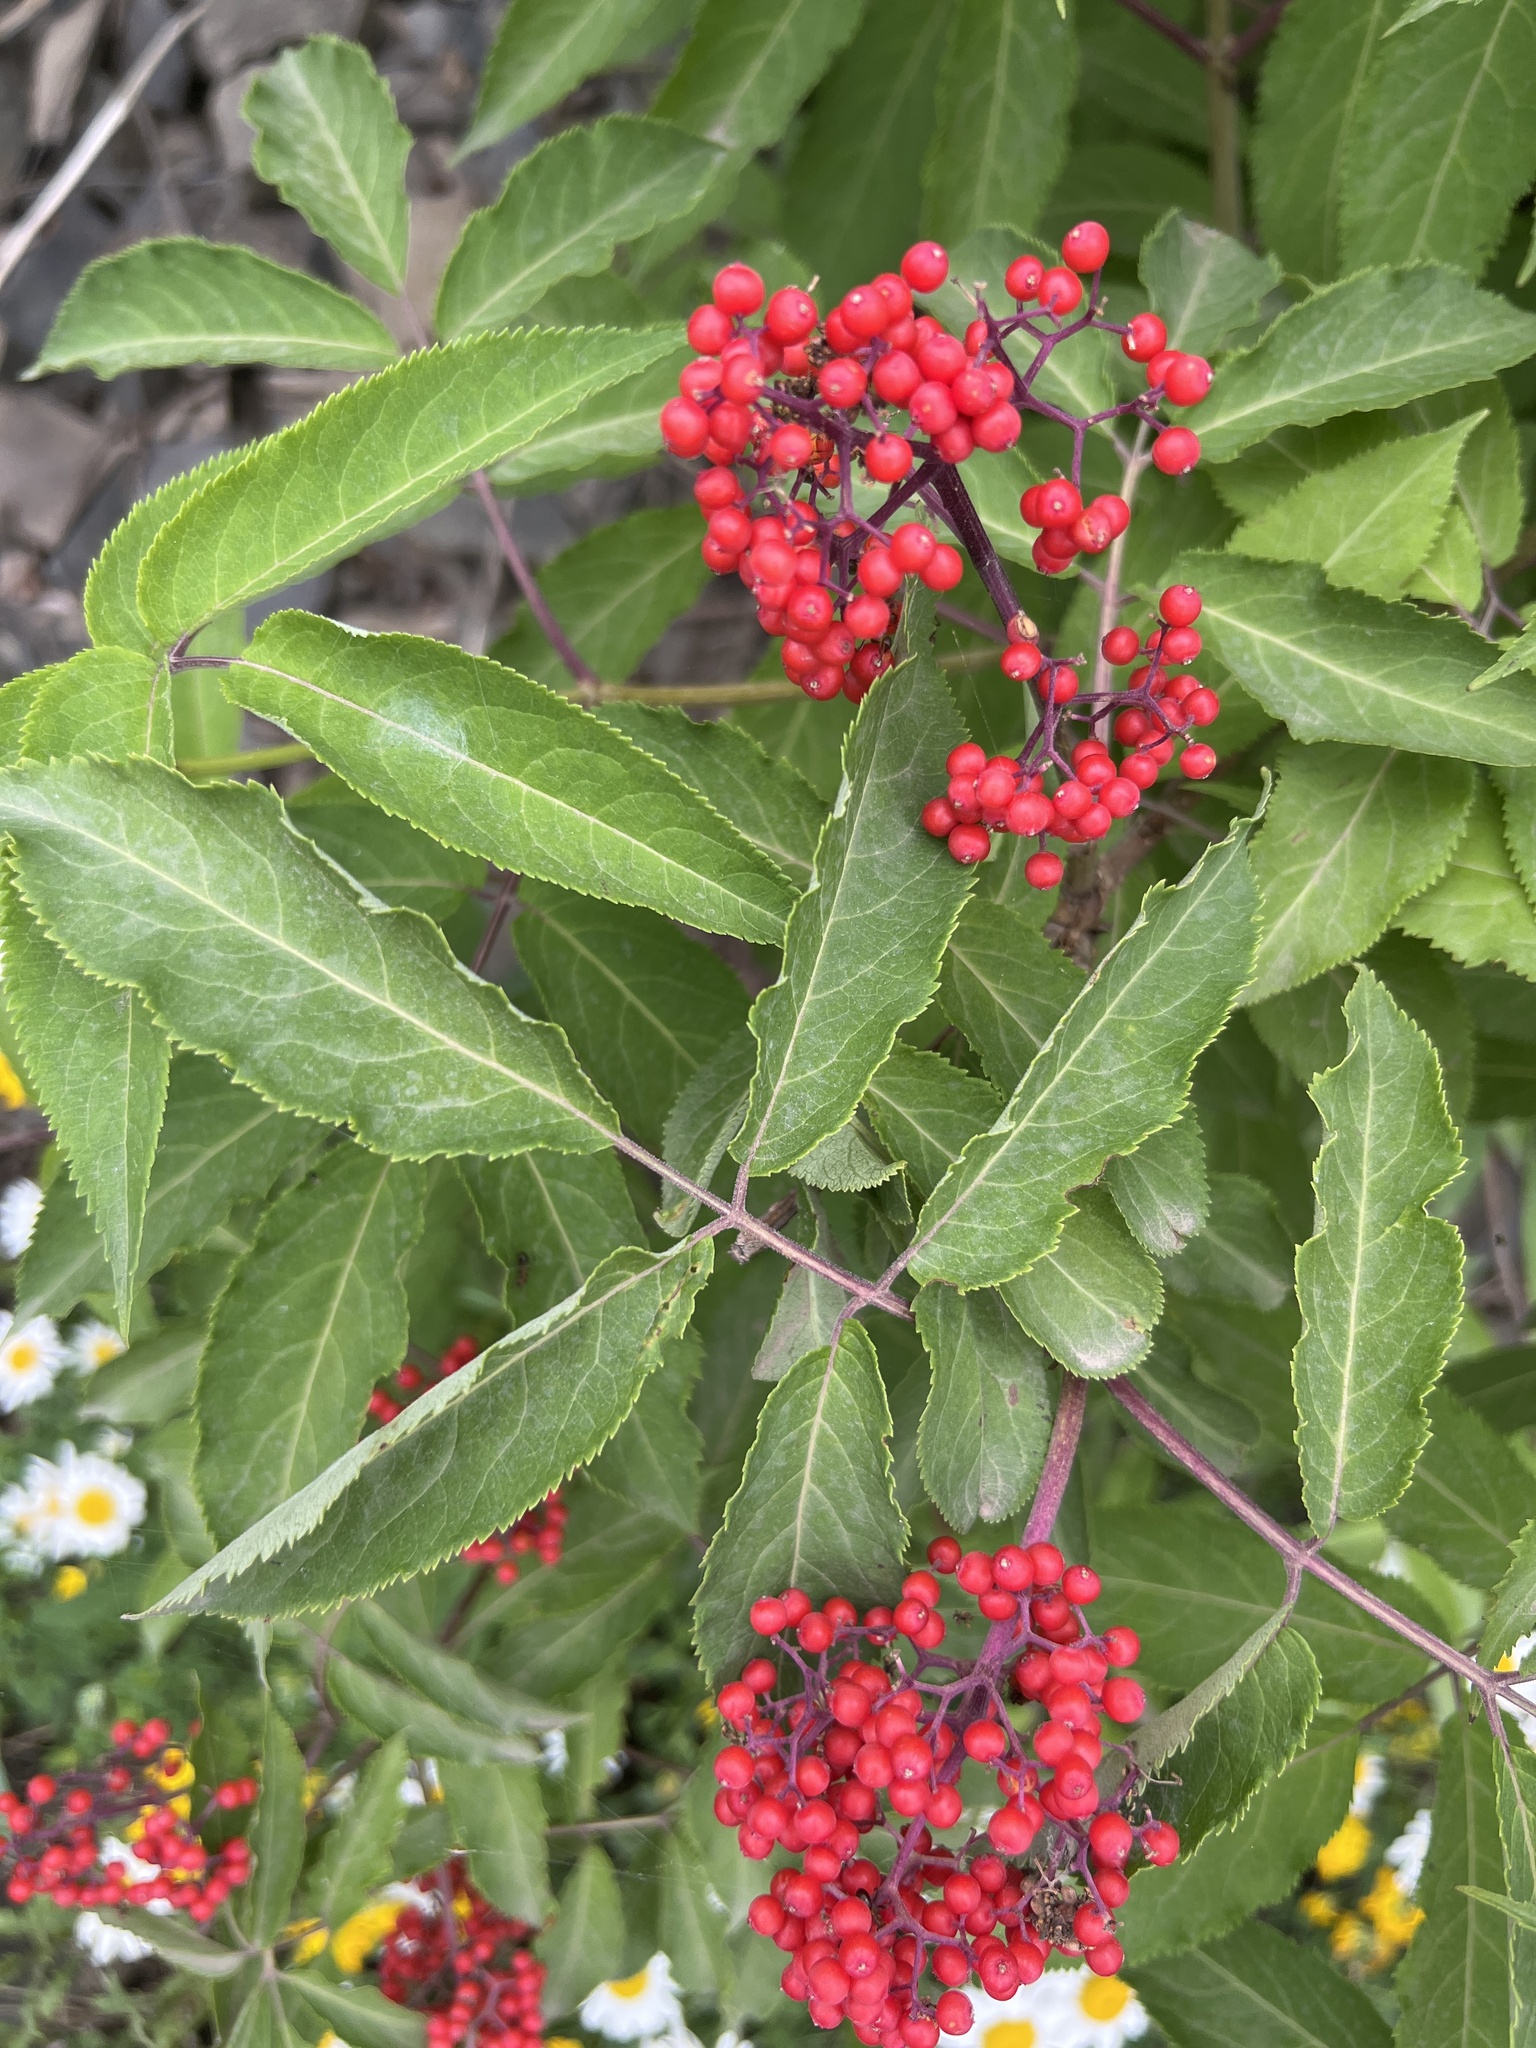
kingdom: Plantae
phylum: Tracheophyta
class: Magnoliopsida
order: Dipsacales
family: Viburnaceae
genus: Sambucus
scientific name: Sambucus racemosa
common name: Red-berried elder
